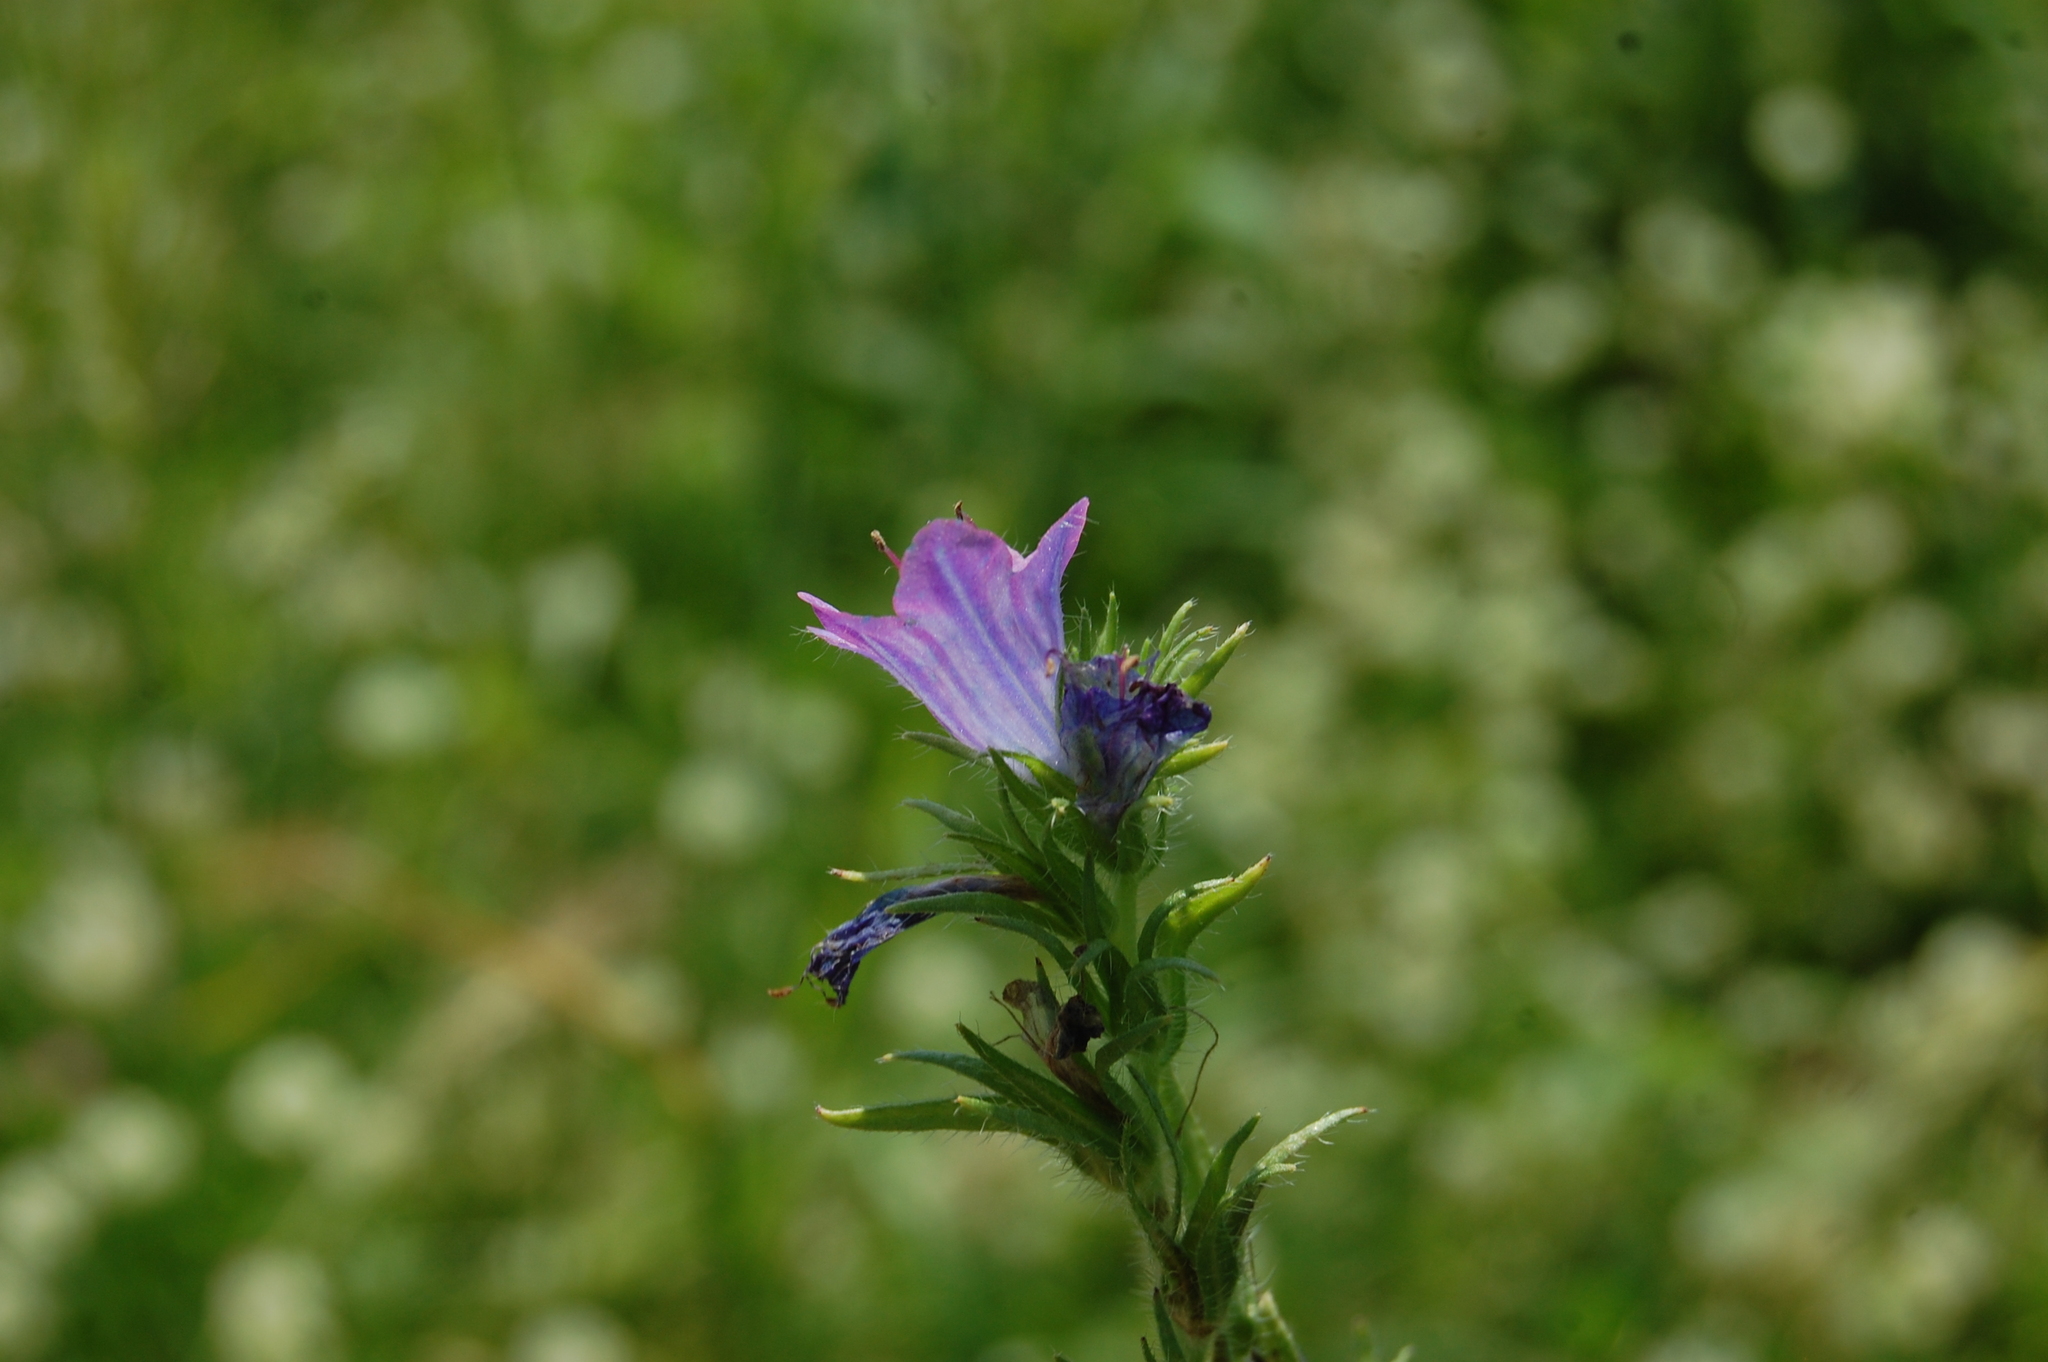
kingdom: Plantae
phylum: Tracheophyta
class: Magnoliopsida
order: Boraginales
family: Boraginaceae
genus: Echium
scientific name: Echium plantagineum
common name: Purple viper's-bugloss
